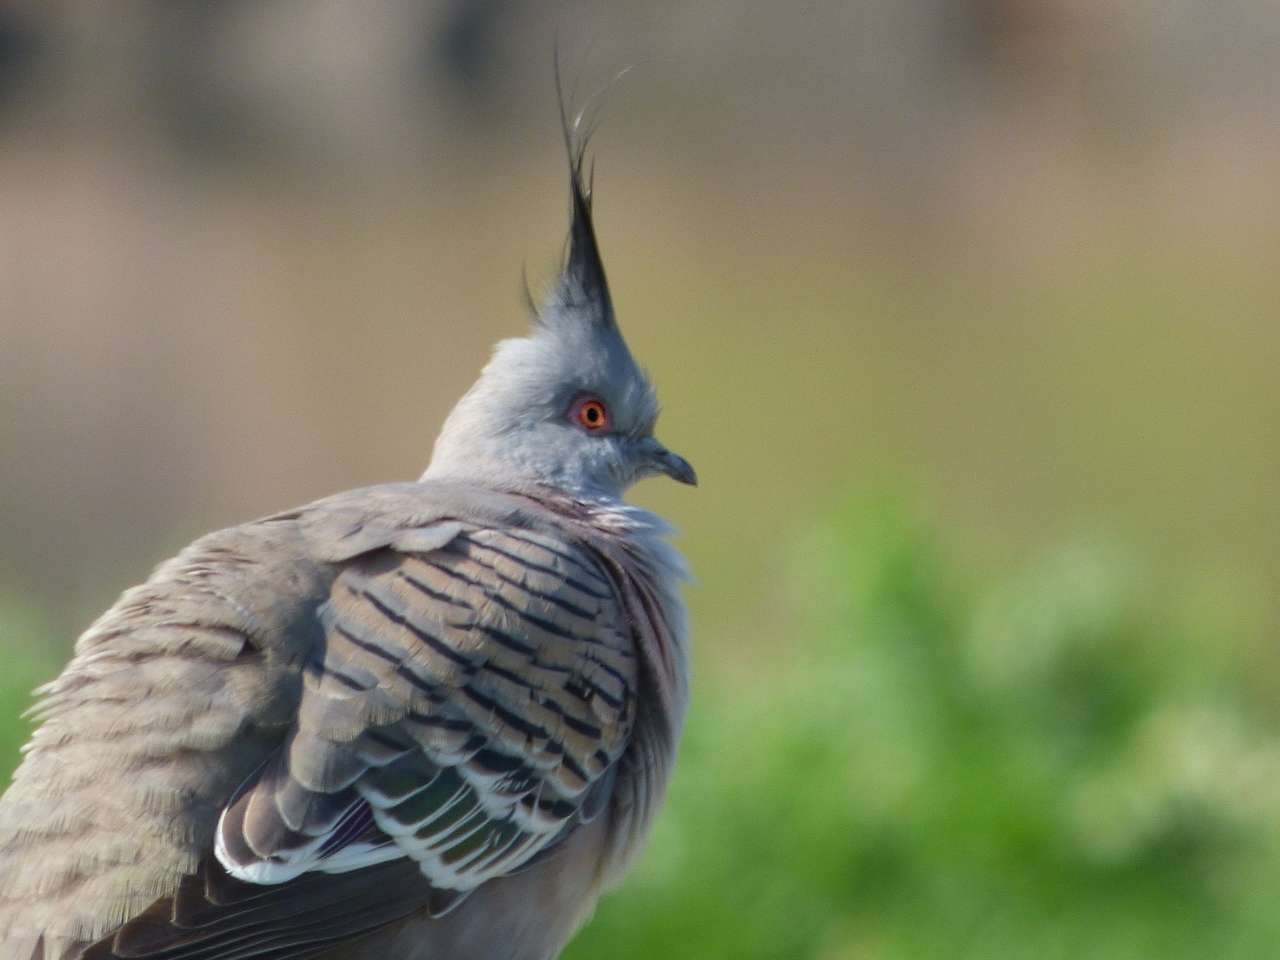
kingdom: Animalia
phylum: Chordata
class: Aves
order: Columbiformes
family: Columbidae
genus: Ocyphaps
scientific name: Ocyphaps lophotes
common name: Crested pigeon
